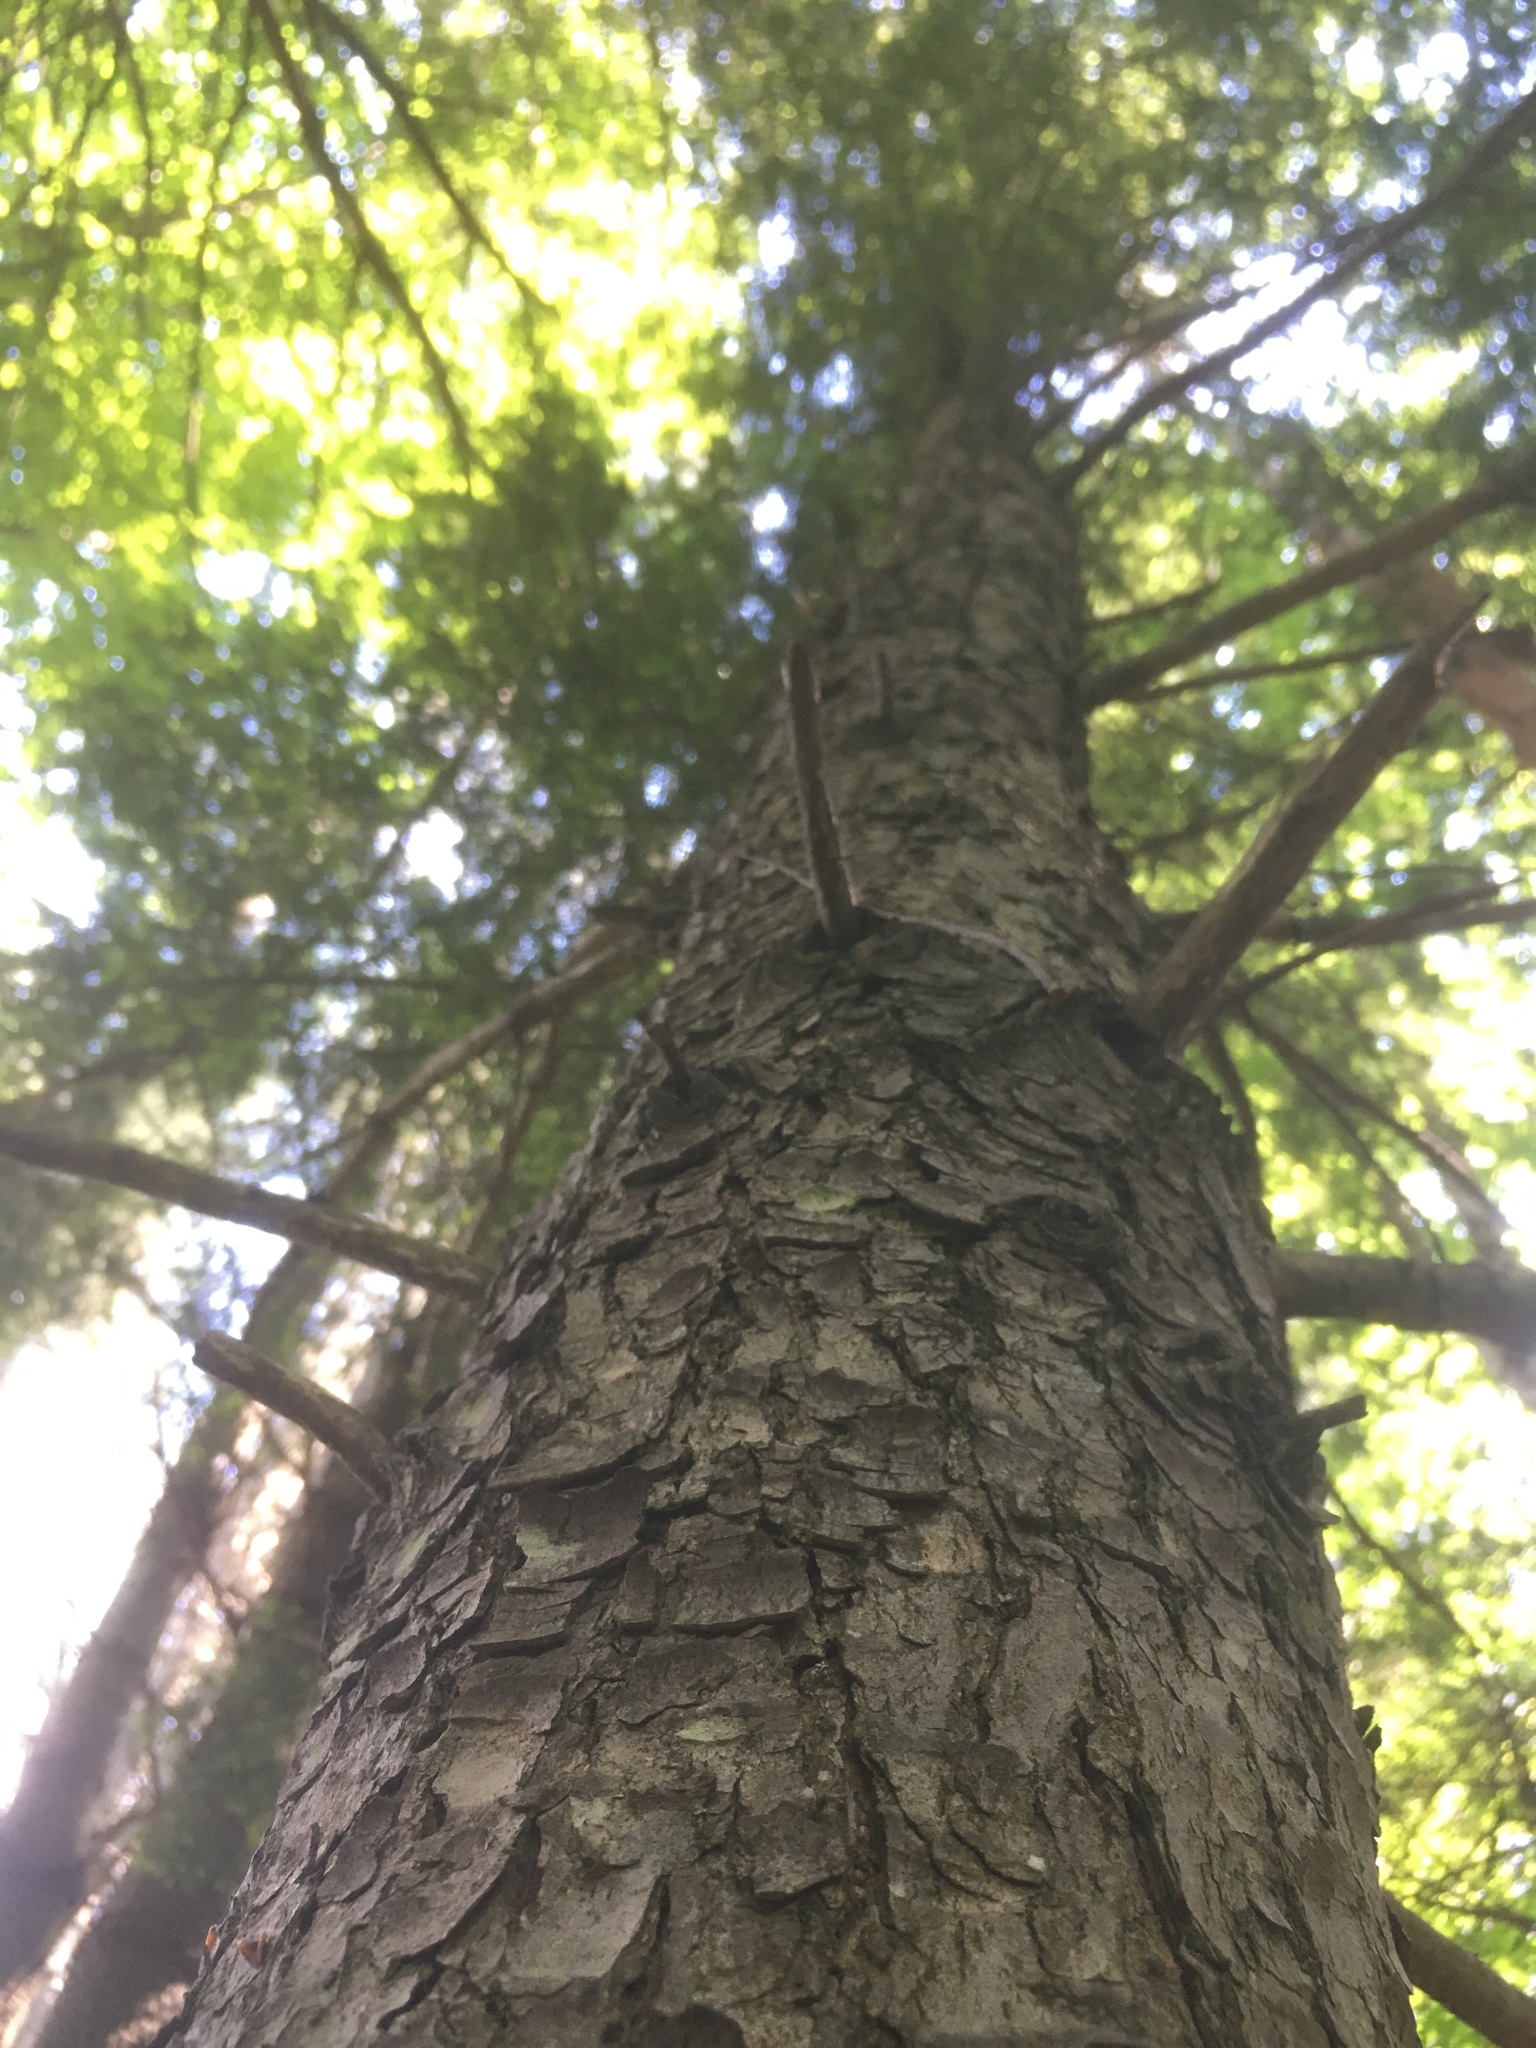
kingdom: Plantae
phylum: Tracheophyta
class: Pinopsida
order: Pinales
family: Pinaceae
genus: Tsuga
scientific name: Tsuga canadensis
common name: Eastern hemlock
